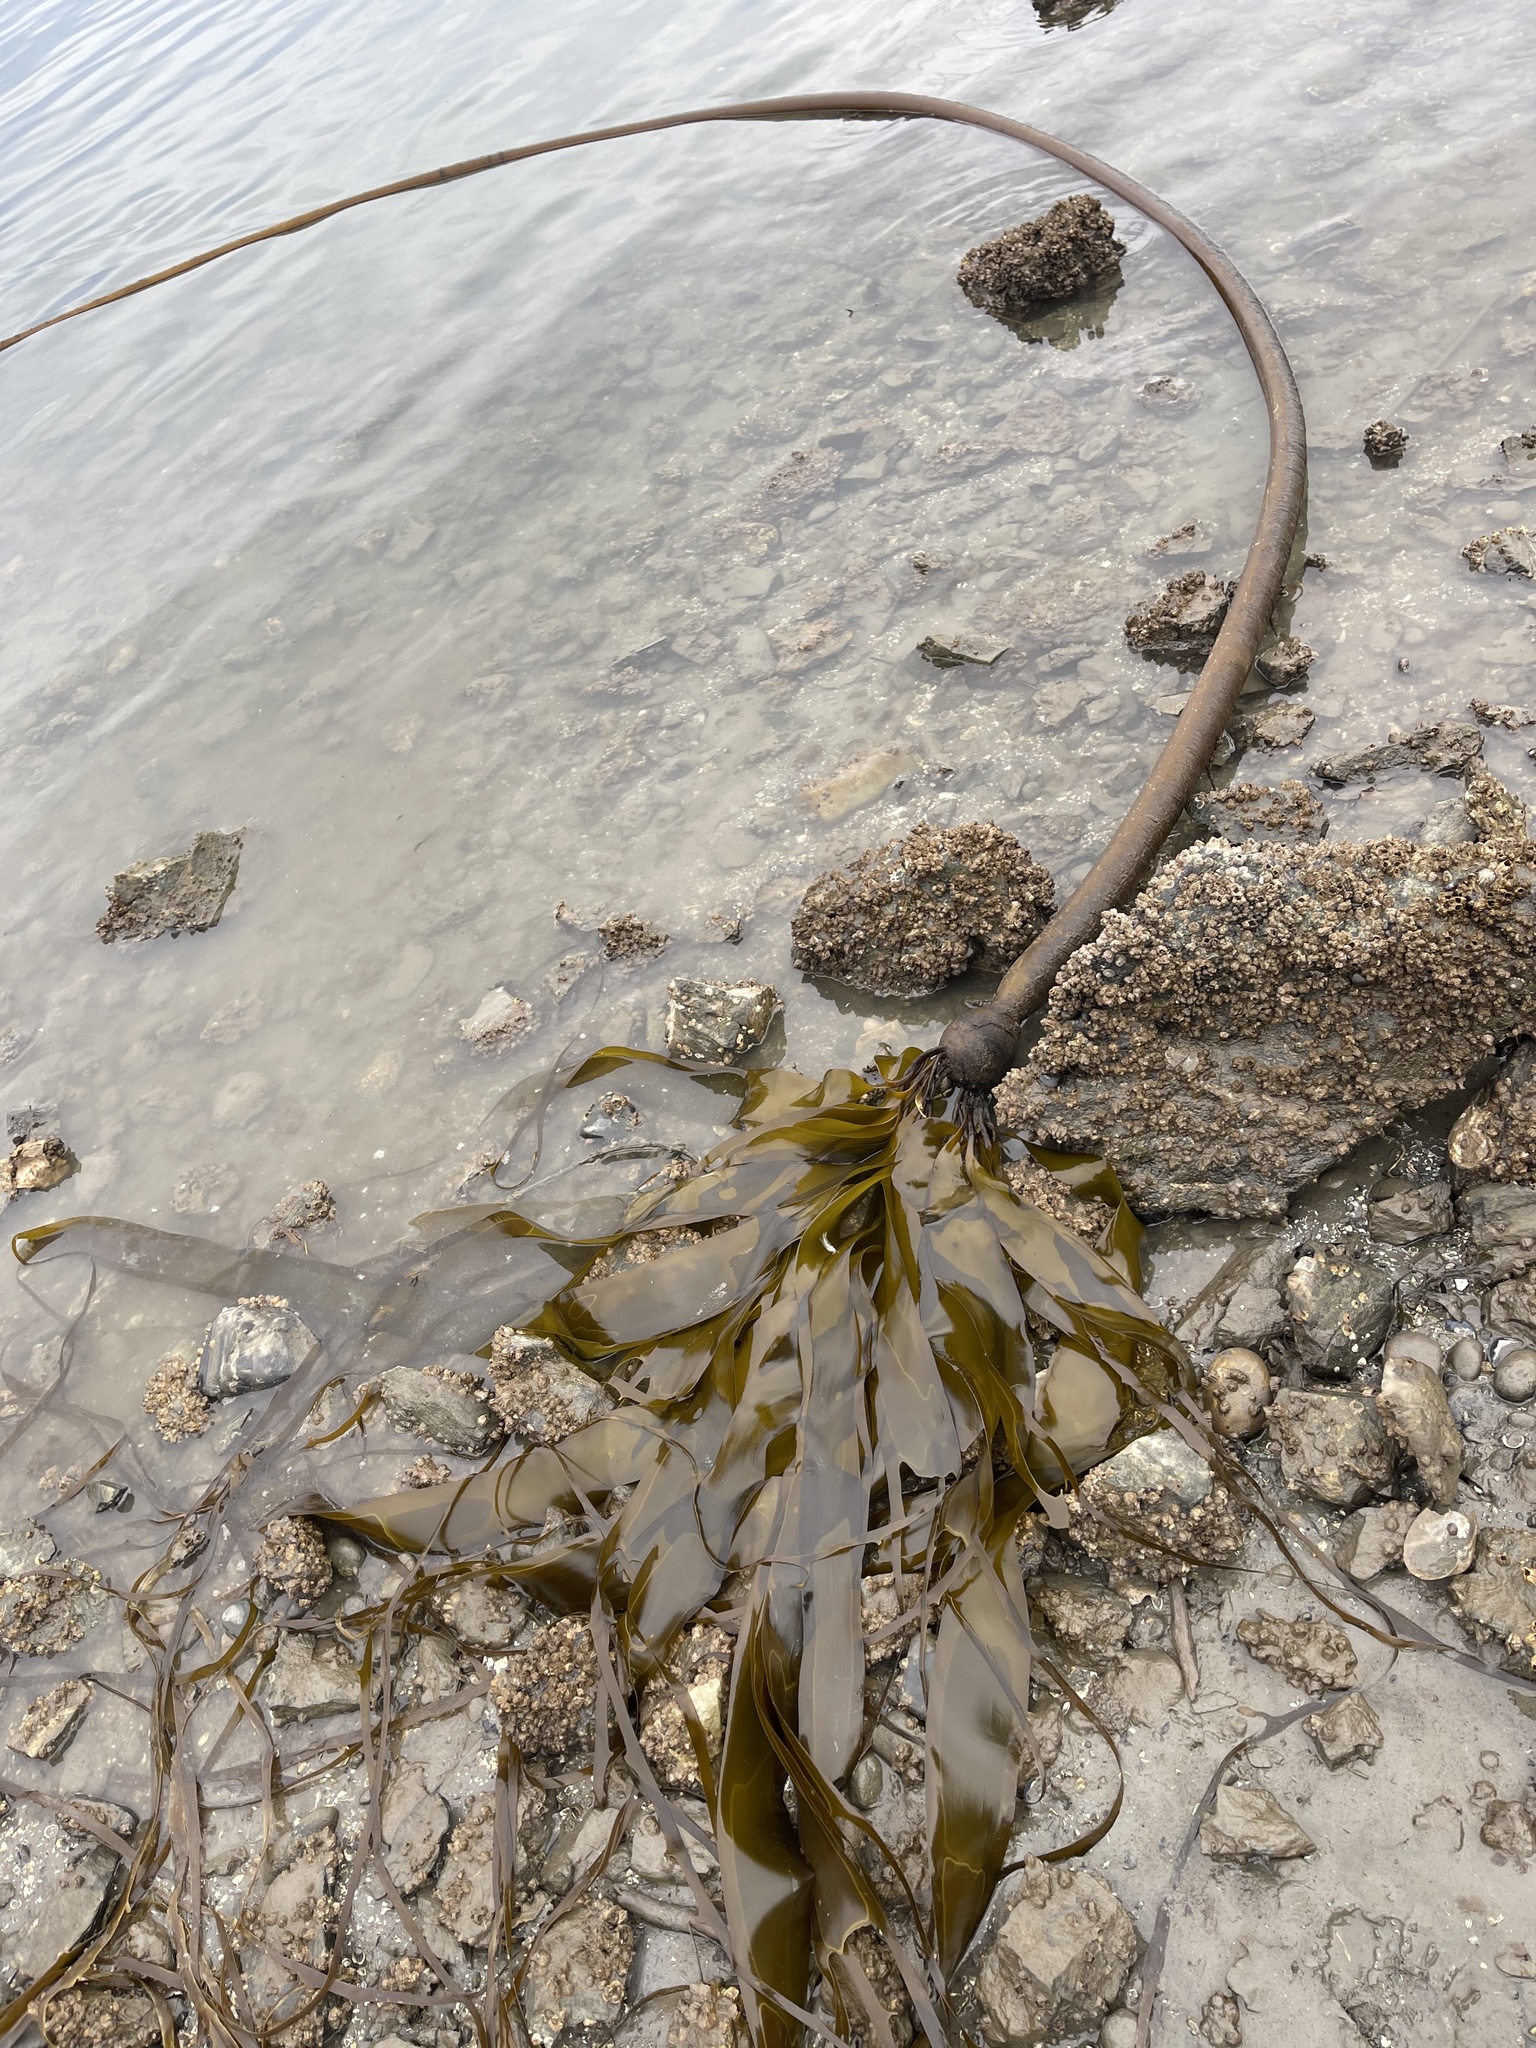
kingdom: Chromista
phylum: Ochrophyta
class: Phaeophyceae
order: Laminariales
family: Laminariaceae
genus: Nereocystis
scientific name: Nereocystis luetkeana
